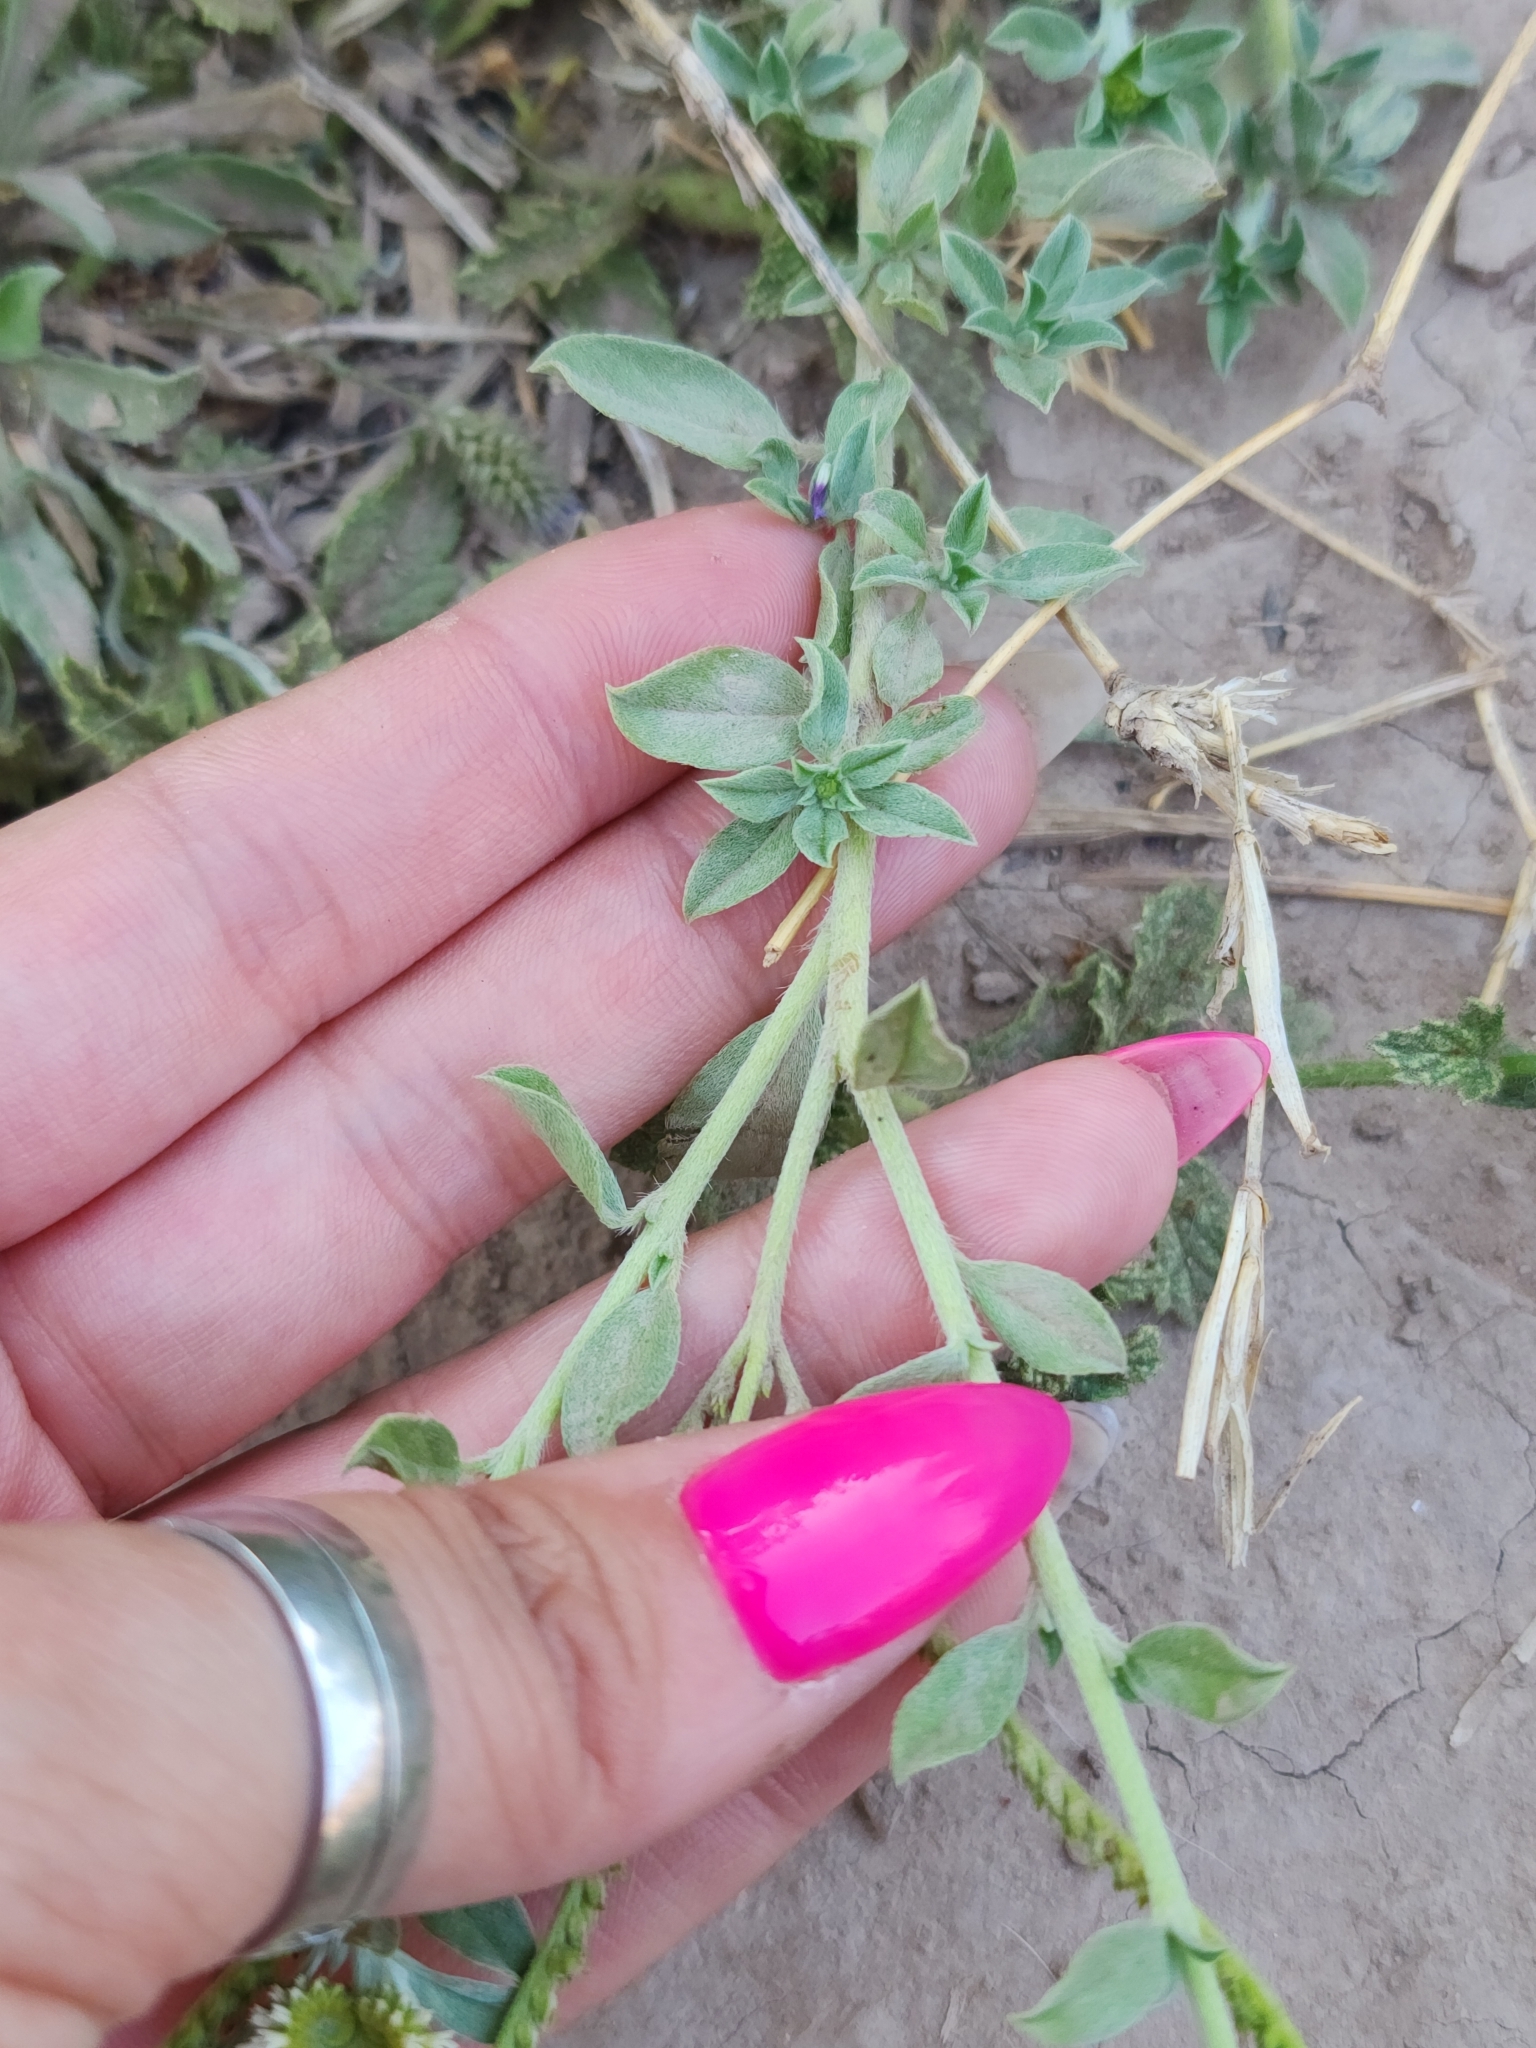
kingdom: Plantae
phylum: Tracheophyta
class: Magnoliopsida
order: Boraginales
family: Heliotropiaceae
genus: Euploca
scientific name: Euploca procumbens
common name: Fourspike heliotrope
